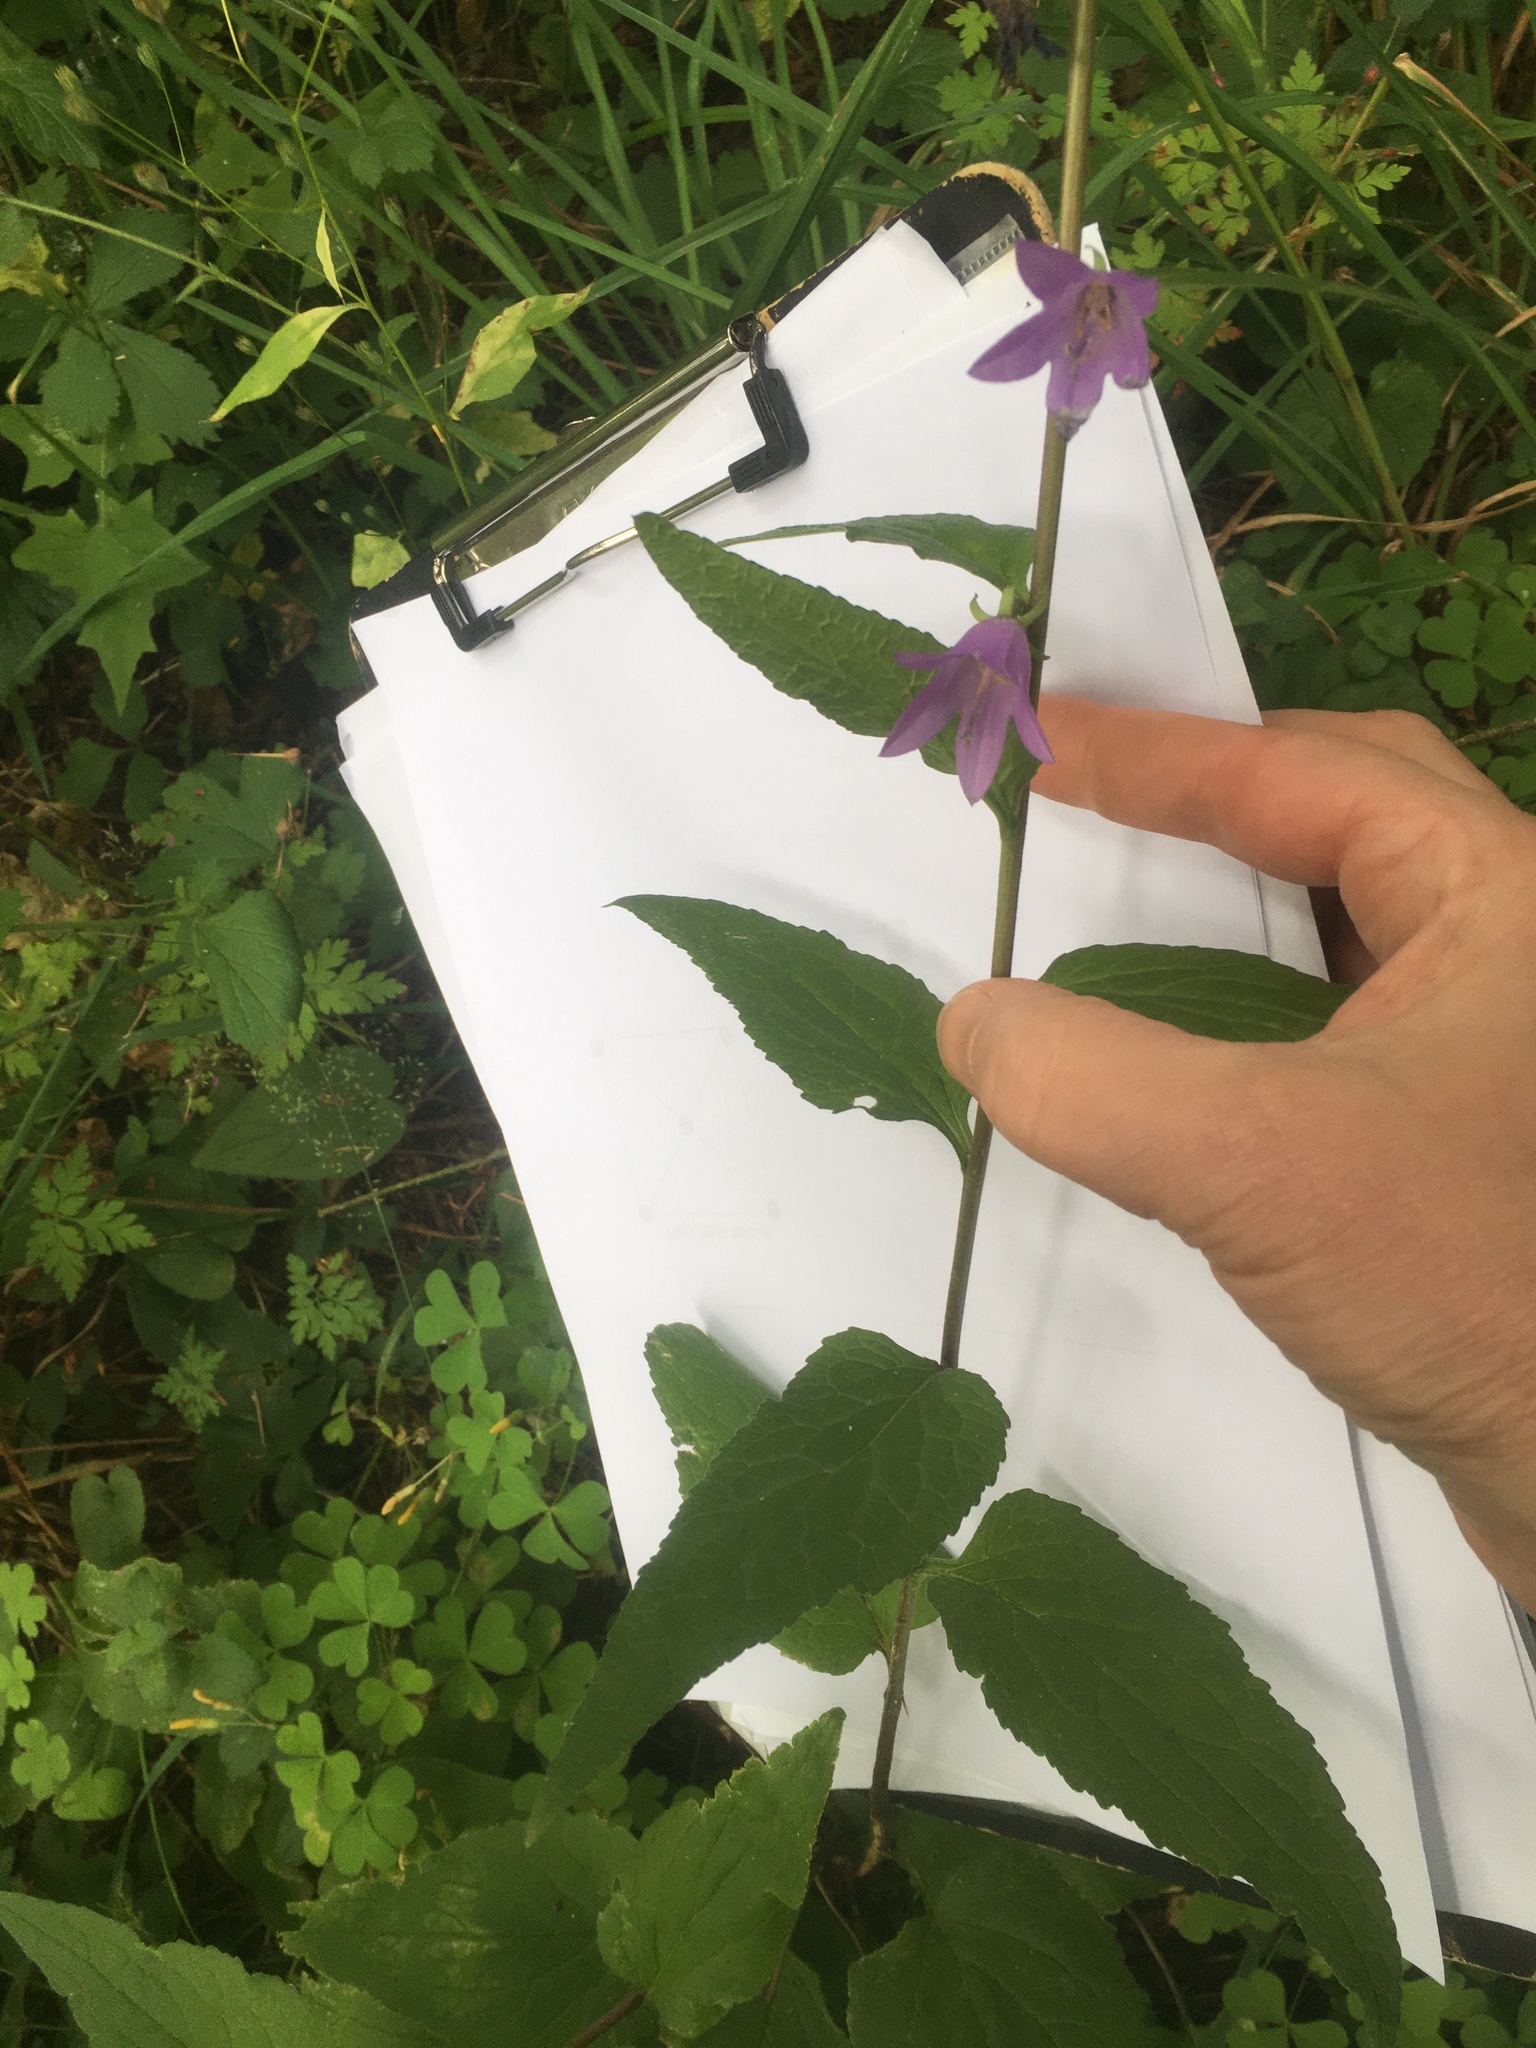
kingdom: Plantae
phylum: Tracheophyta
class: Magnoliopsida
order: Asterales
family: Campanulaceae
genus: Campanula
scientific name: Campanula rapunculoides
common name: Creeping bellflower
